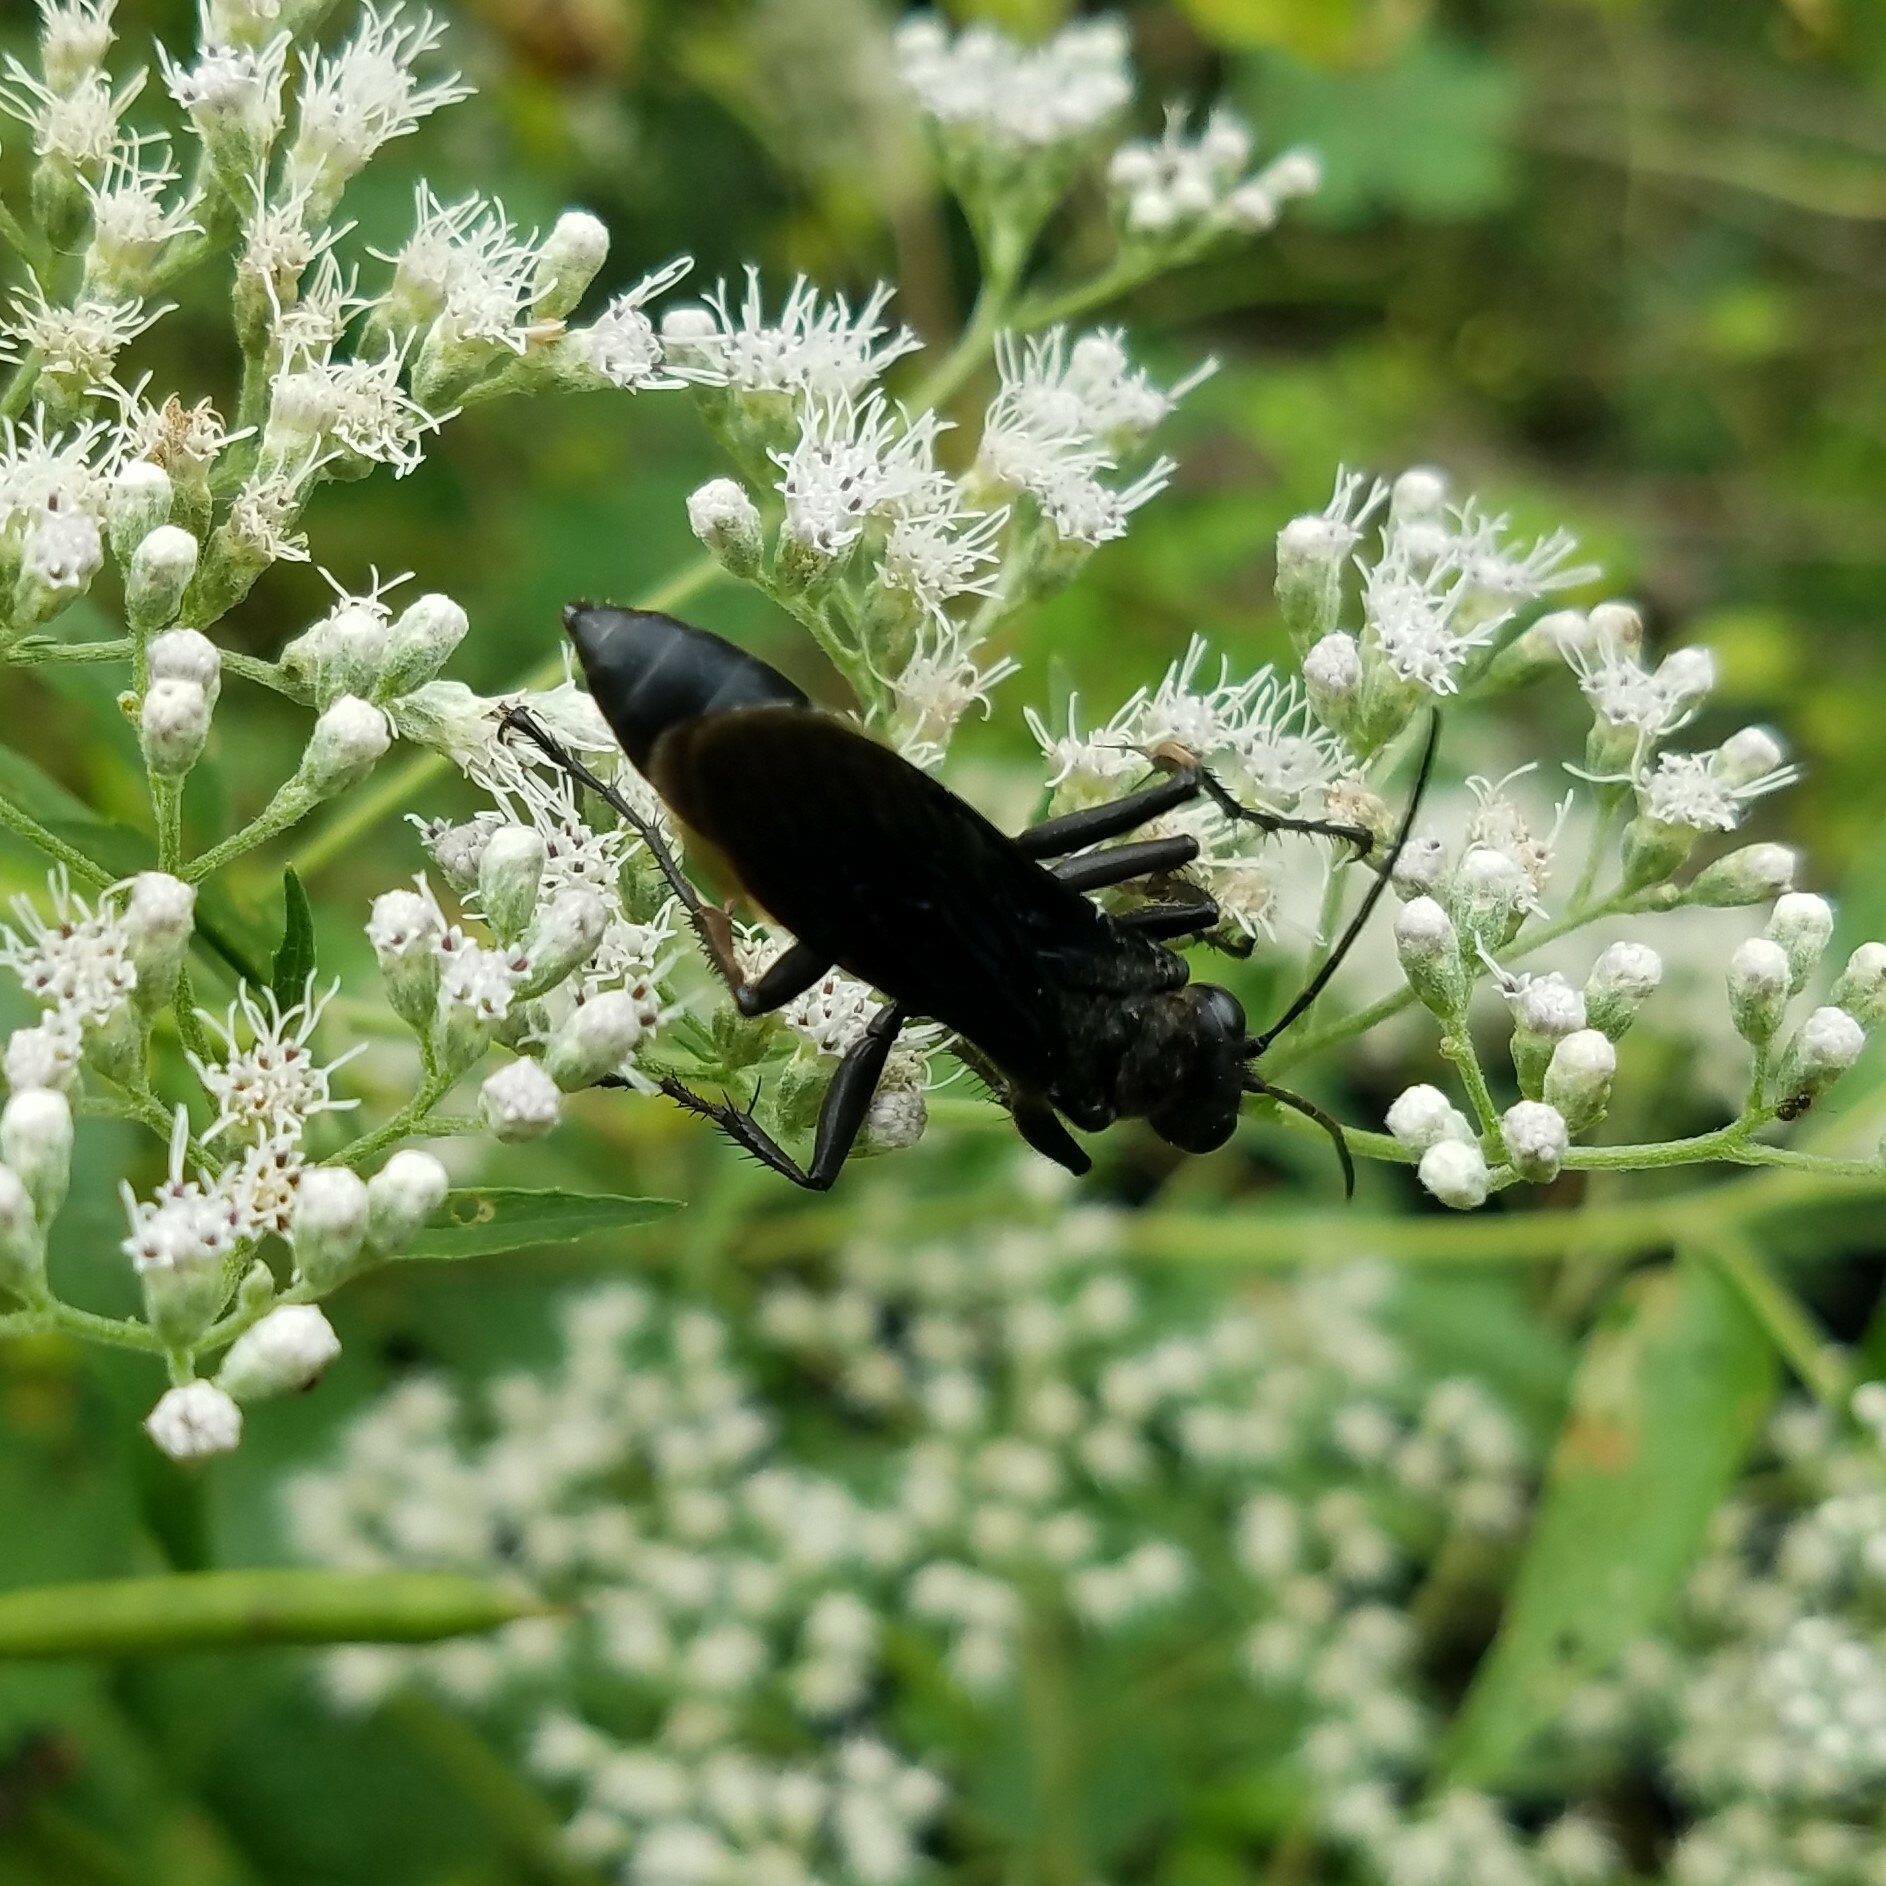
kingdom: Animalia
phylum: Arthropoda
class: Insecta
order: Hymenoptera
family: Sphecidae
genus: Sphex
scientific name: Sphex pensylvanicus
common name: Great black digger wasp
